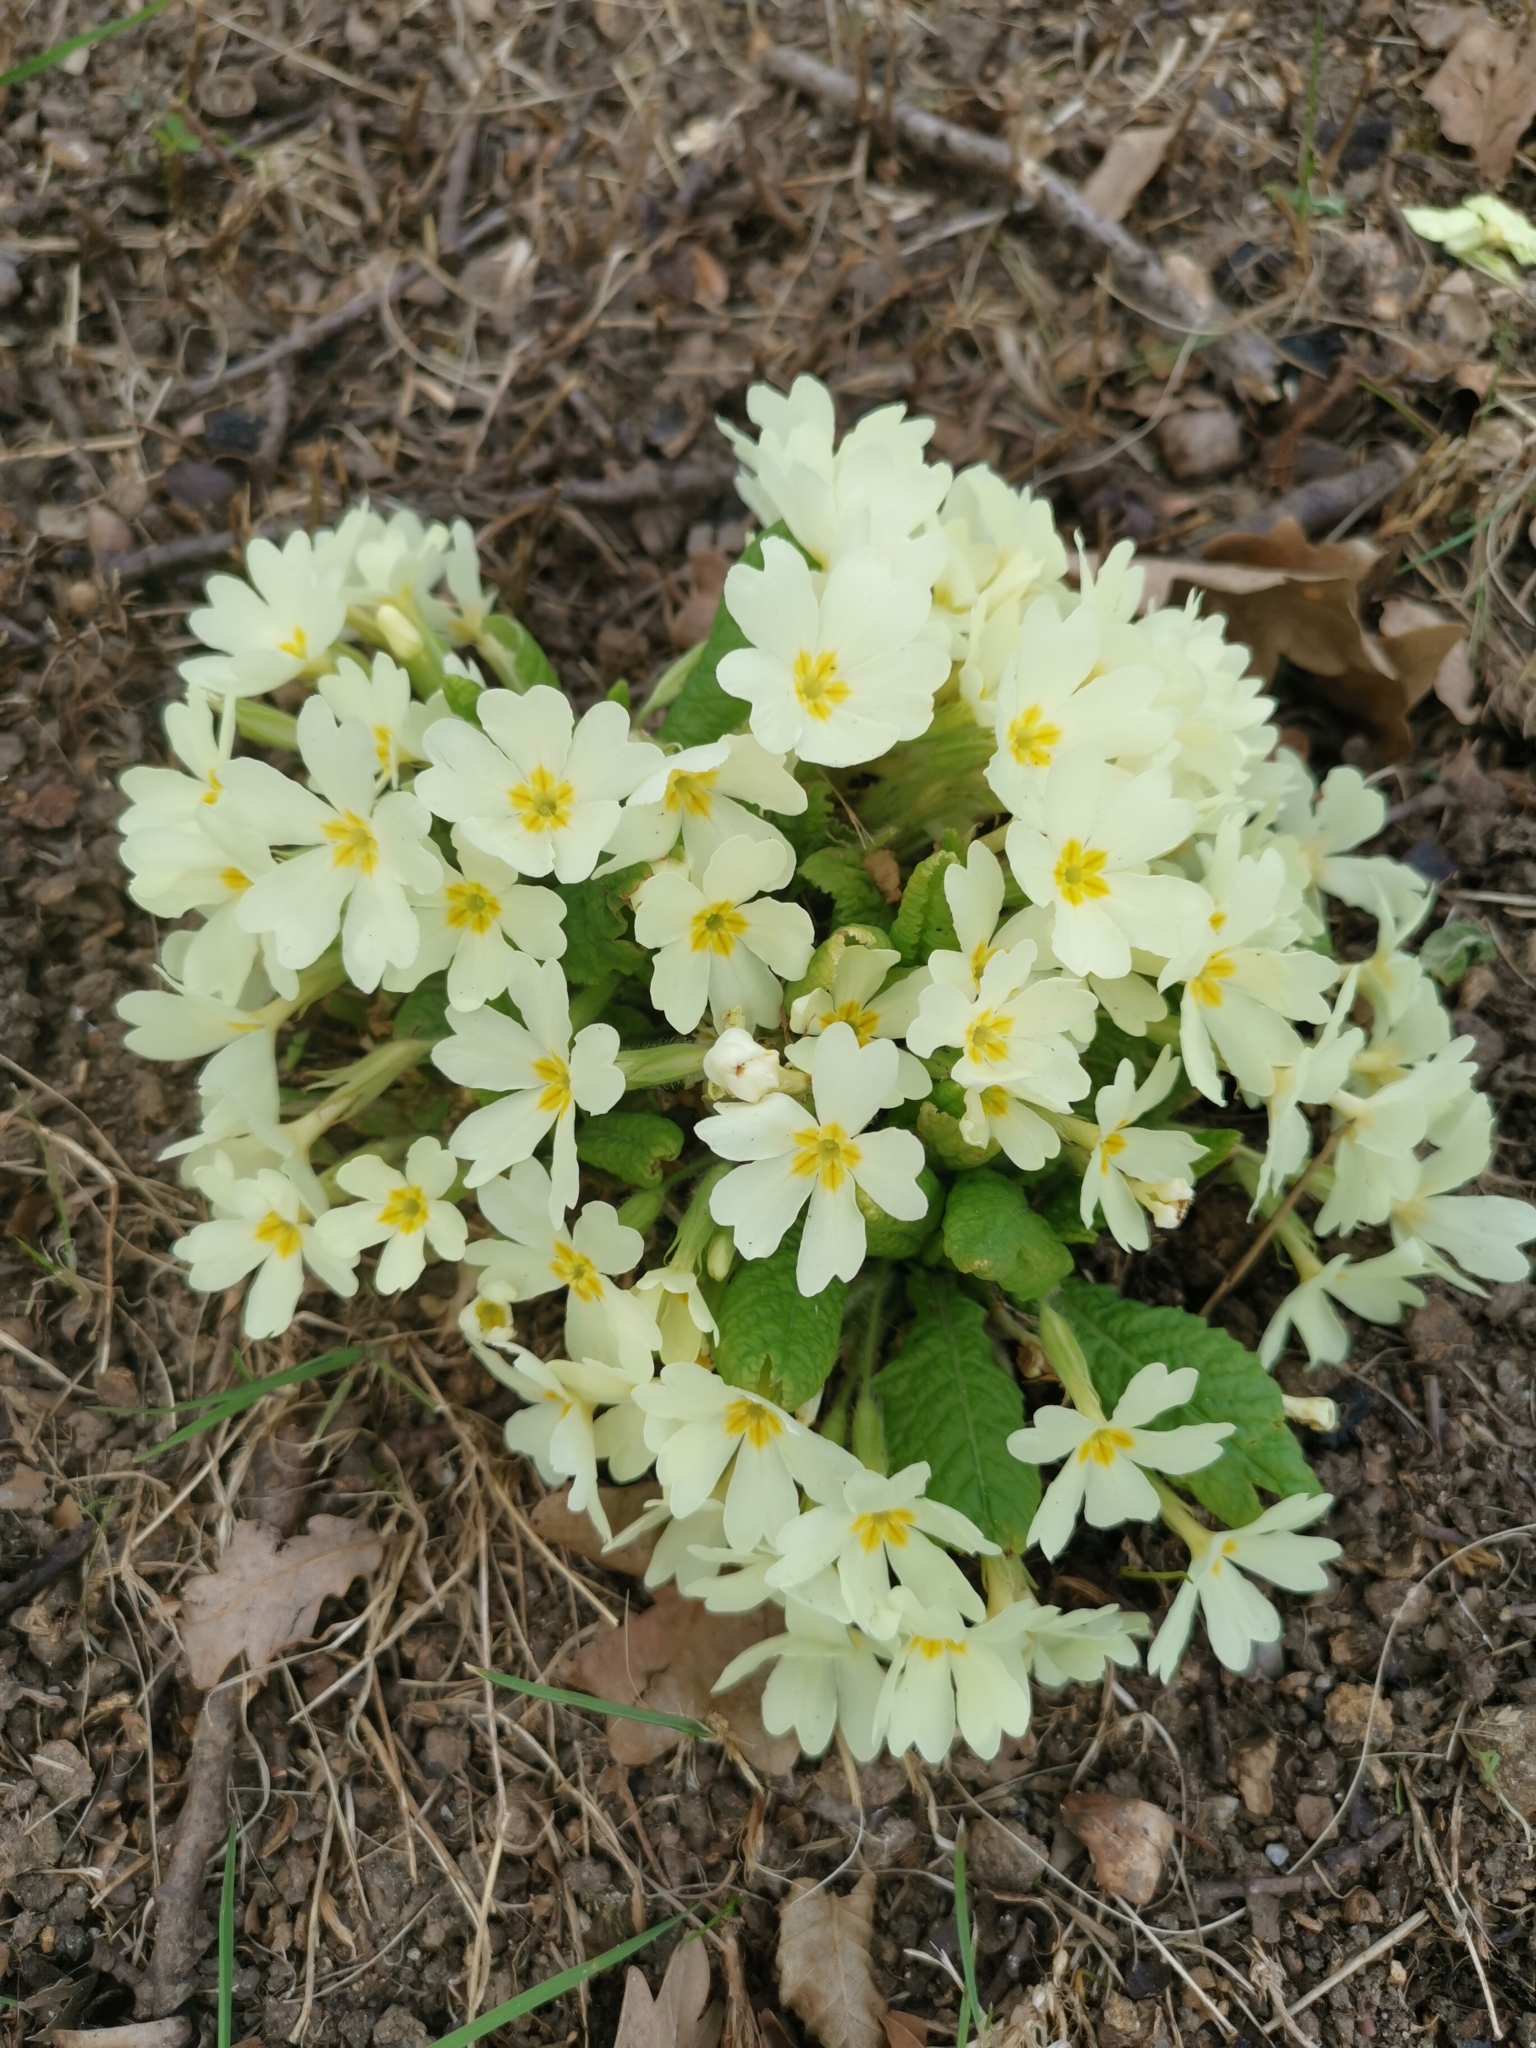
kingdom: Plantae
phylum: Tracheophyta
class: Magnoliopsida
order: Ericales
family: Primulaceae
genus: Primula
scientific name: Primula vulgaris
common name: Primrose
